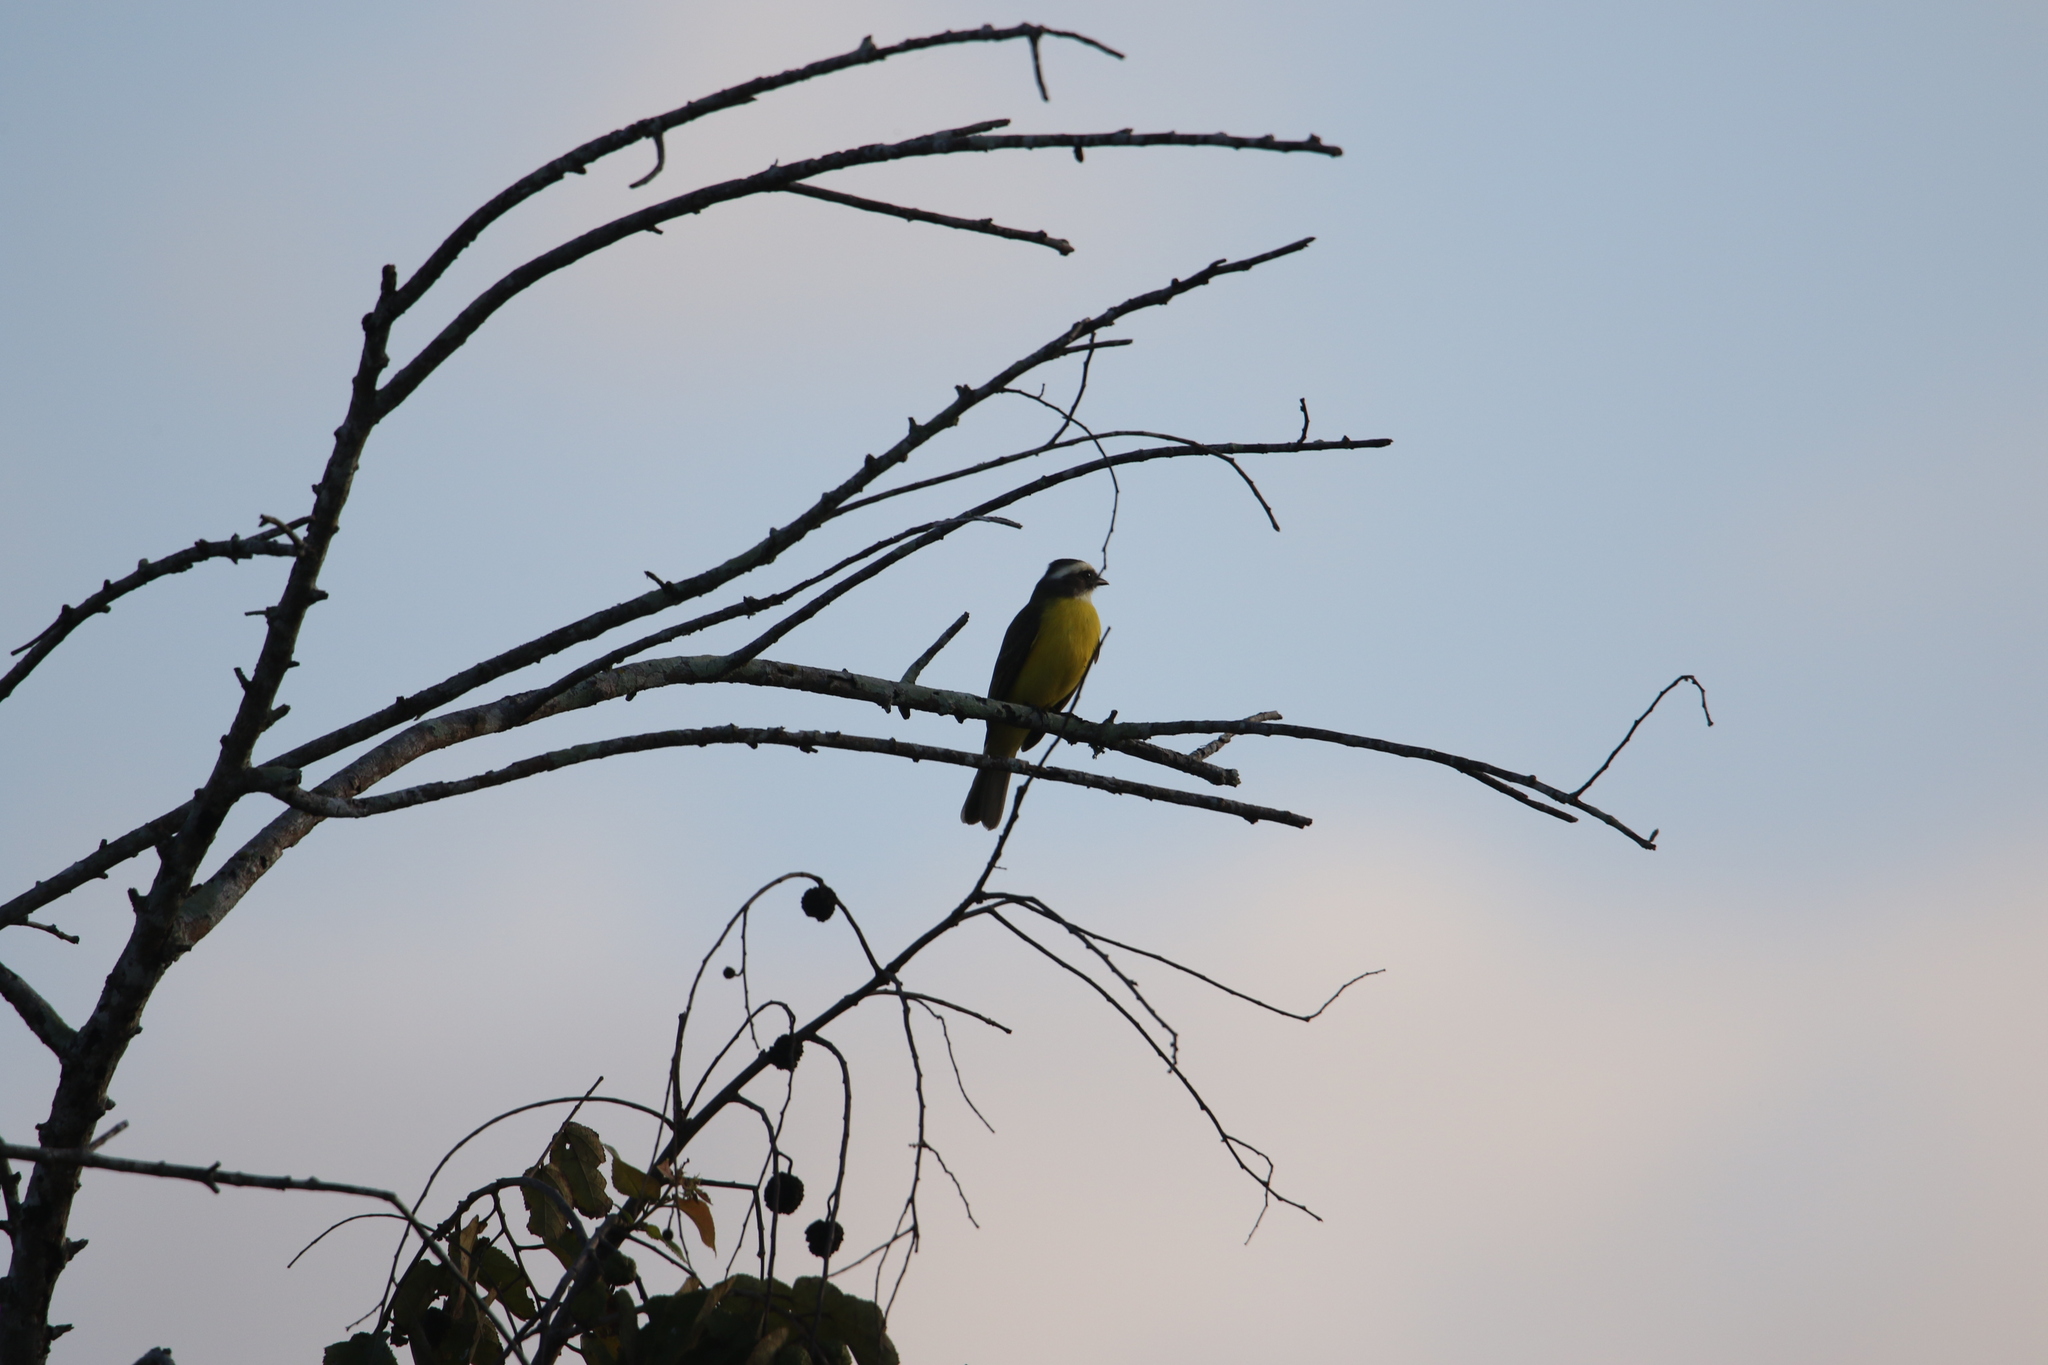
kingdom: Animalia
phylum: Chordata
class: Aves
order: Passeriformes
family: Tyrannidae
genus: Myiozetetes
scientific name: Myiozetetes similis
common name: Social flycatcher
